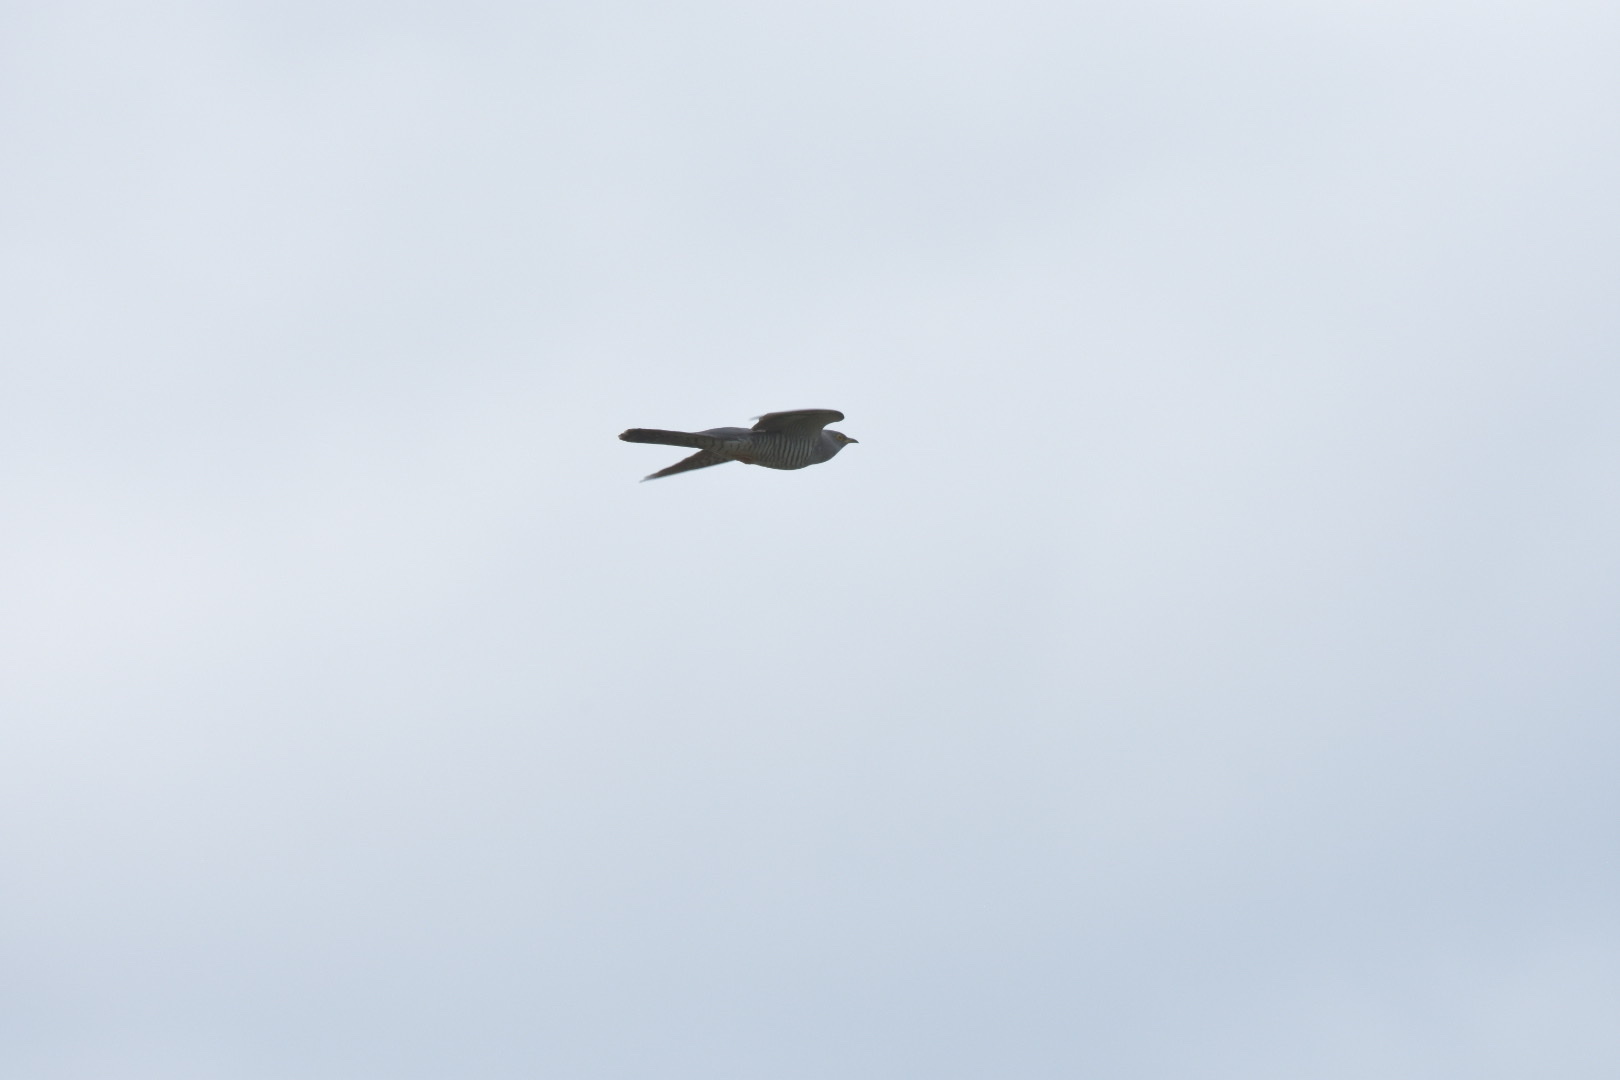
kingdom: Animalia
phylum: Chordata
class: Aves
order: Cuculiformes
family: Cuculidae
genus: Cuculus
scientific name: Cuculus canorus
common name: Common cuckoo
